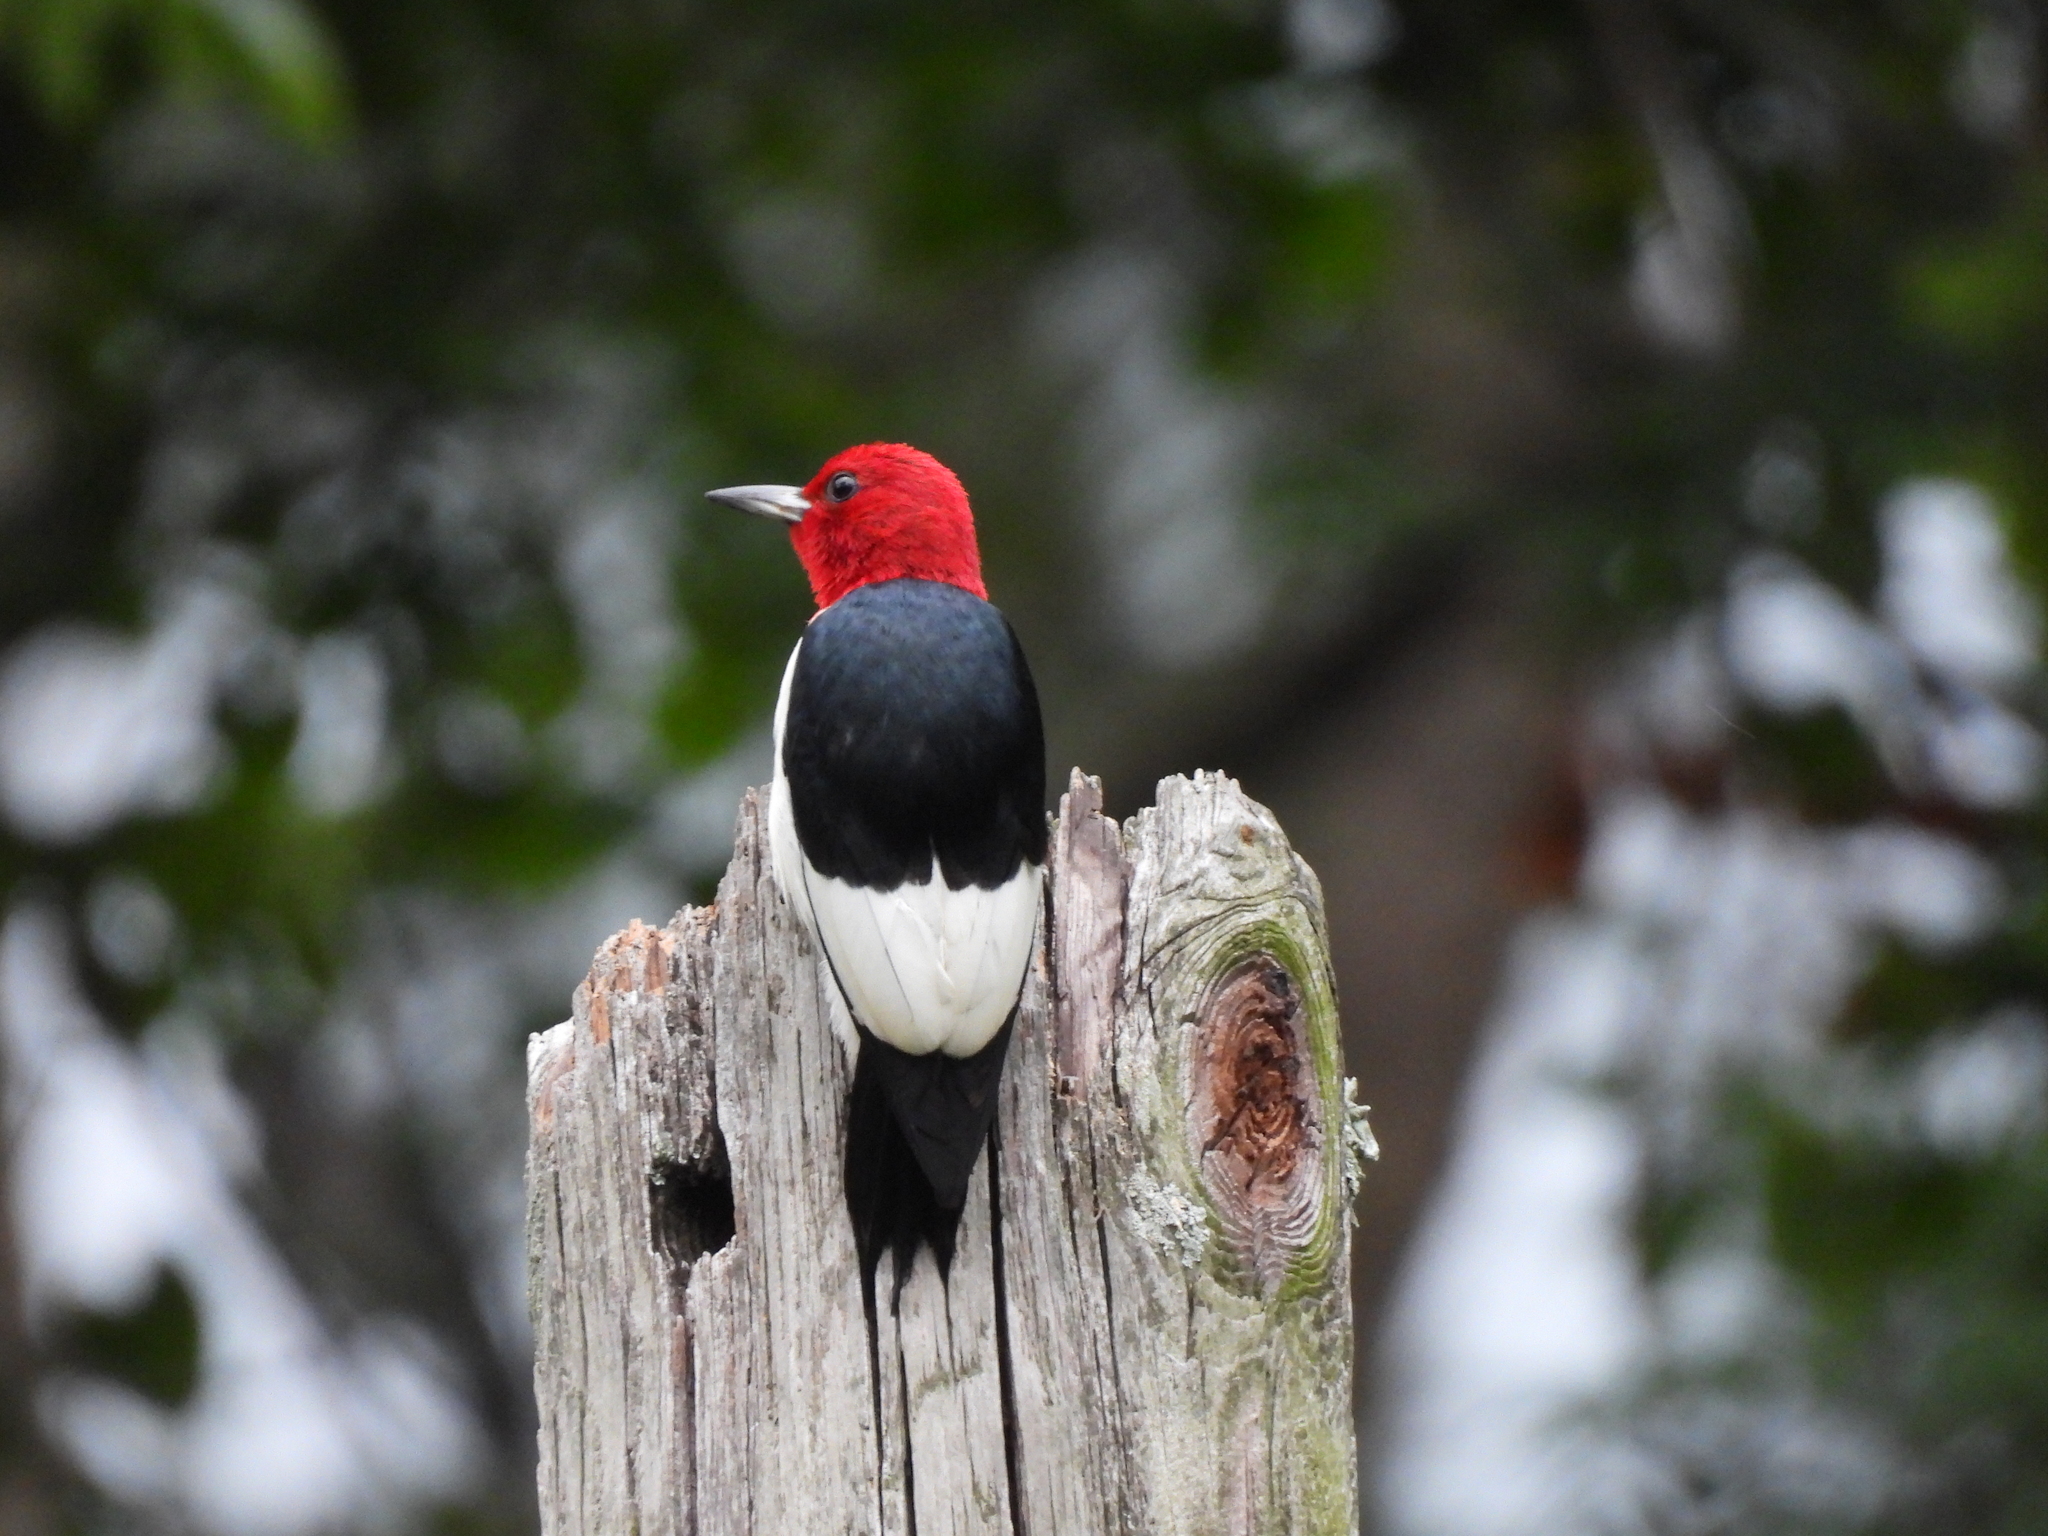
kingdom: Animalia
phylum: Chordata
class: Aves
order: Piciformes
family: Picidae
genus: Melanerpes
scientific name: Melanerpes erythrocephalus
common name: Red-headed woodpecker
